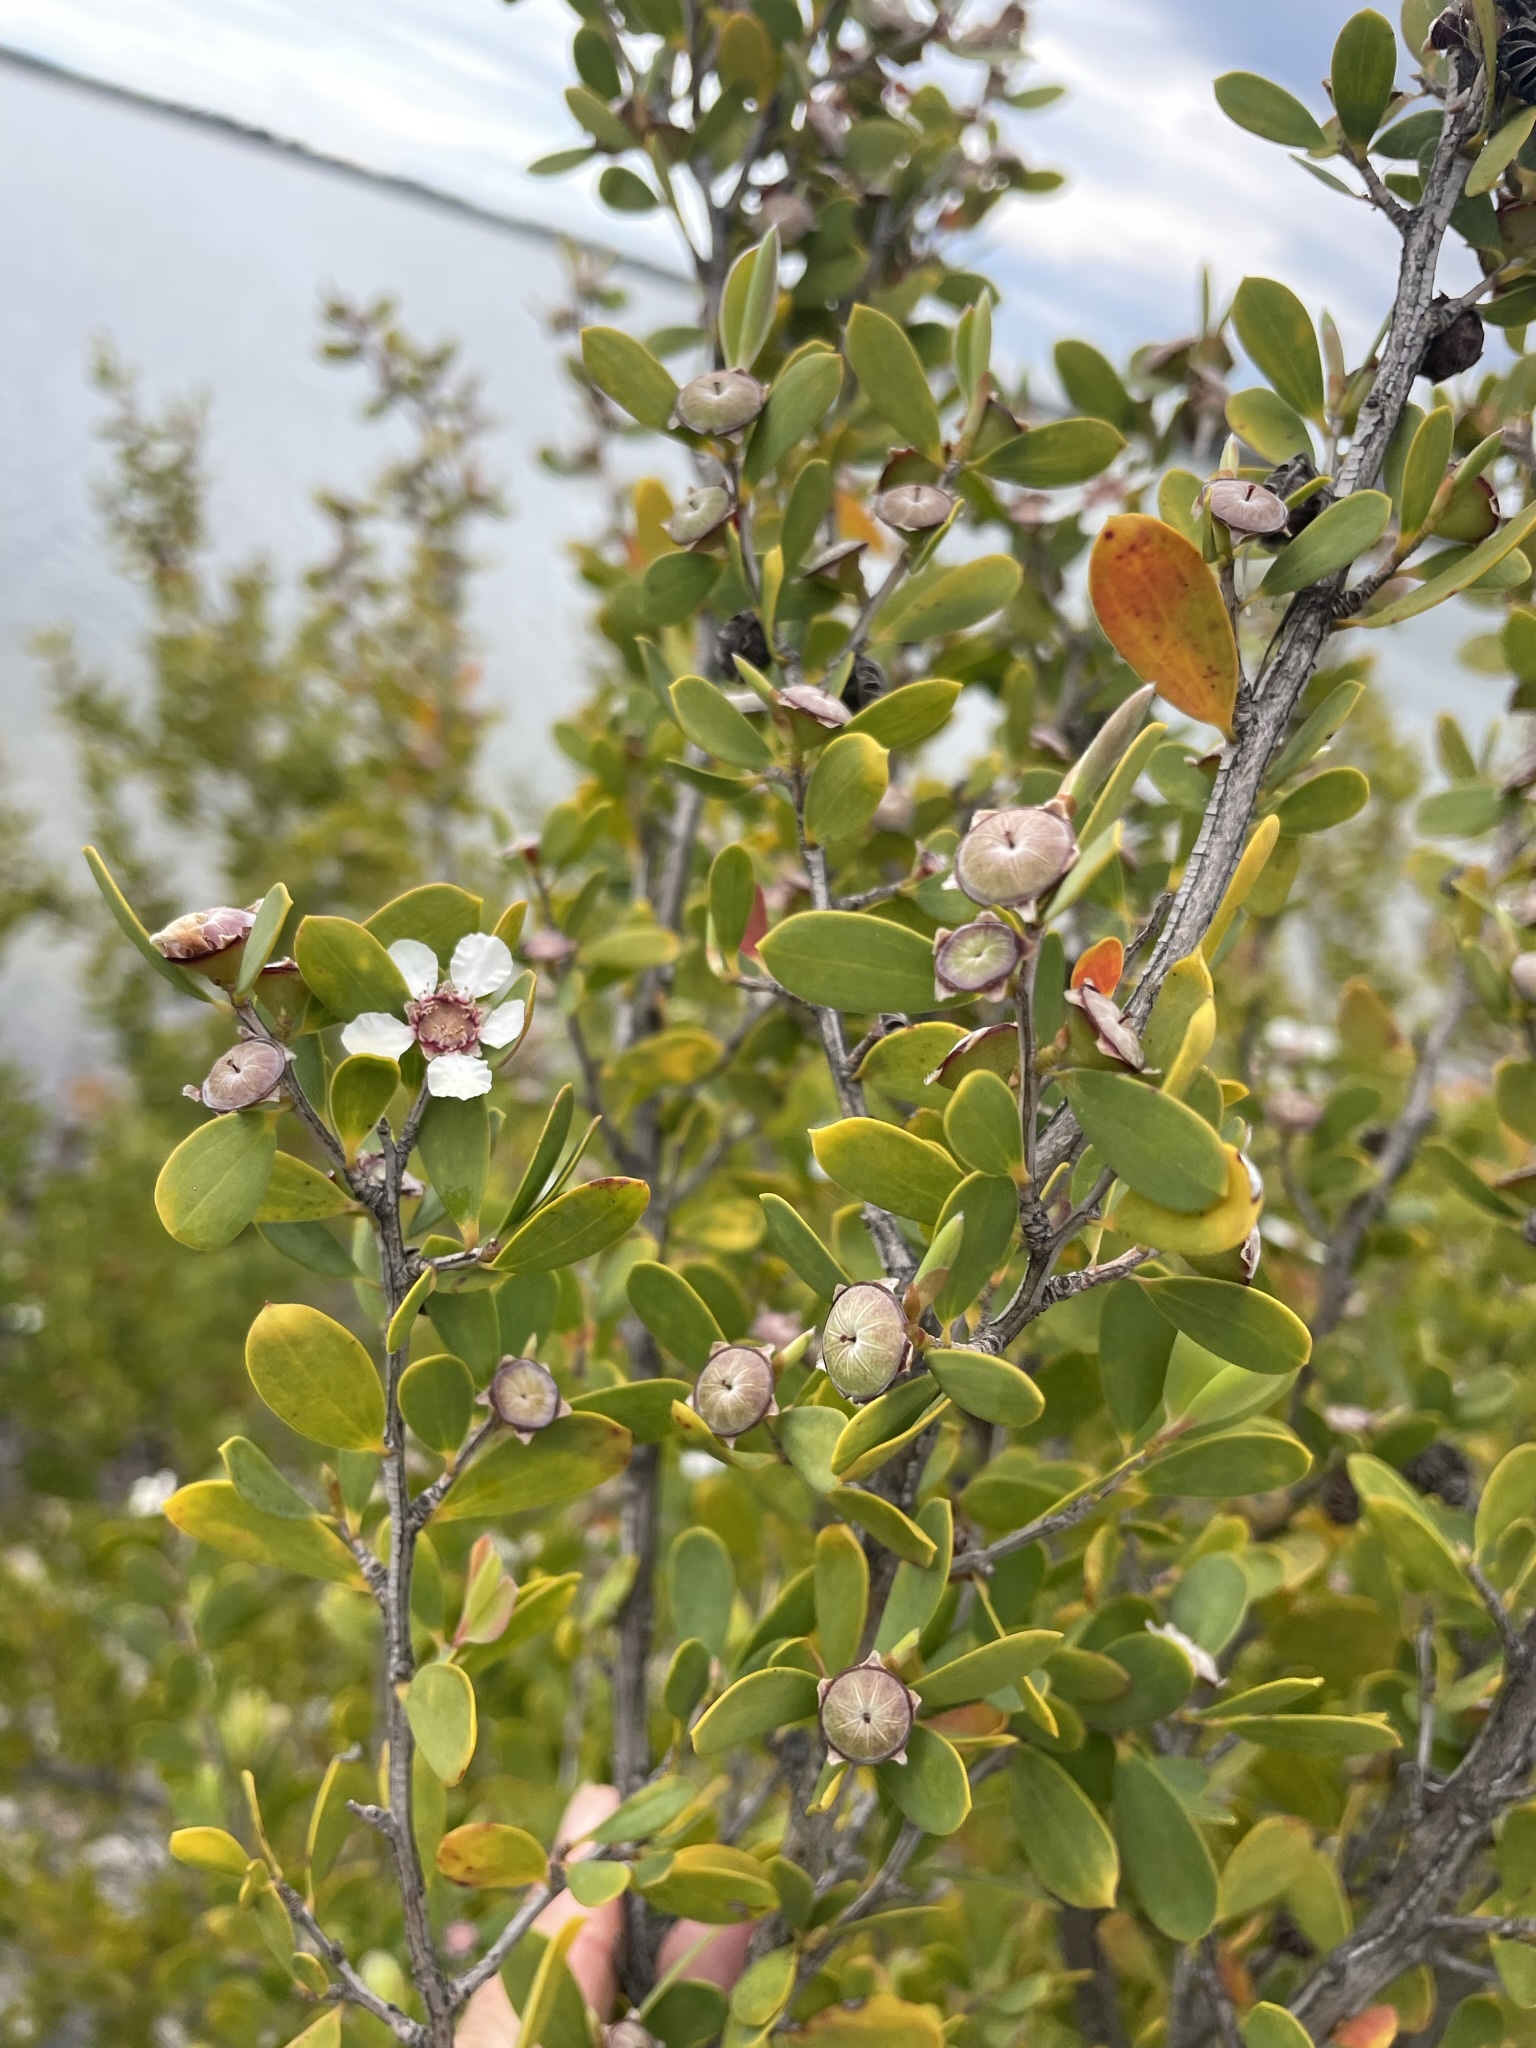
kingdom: Plantae
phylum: Tracheophyta
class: Magnoliopsida
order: Myrtales
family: Myrtaceae
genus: Leptospermum
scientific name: Leptospermum laevigatum
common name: Australian teatree
